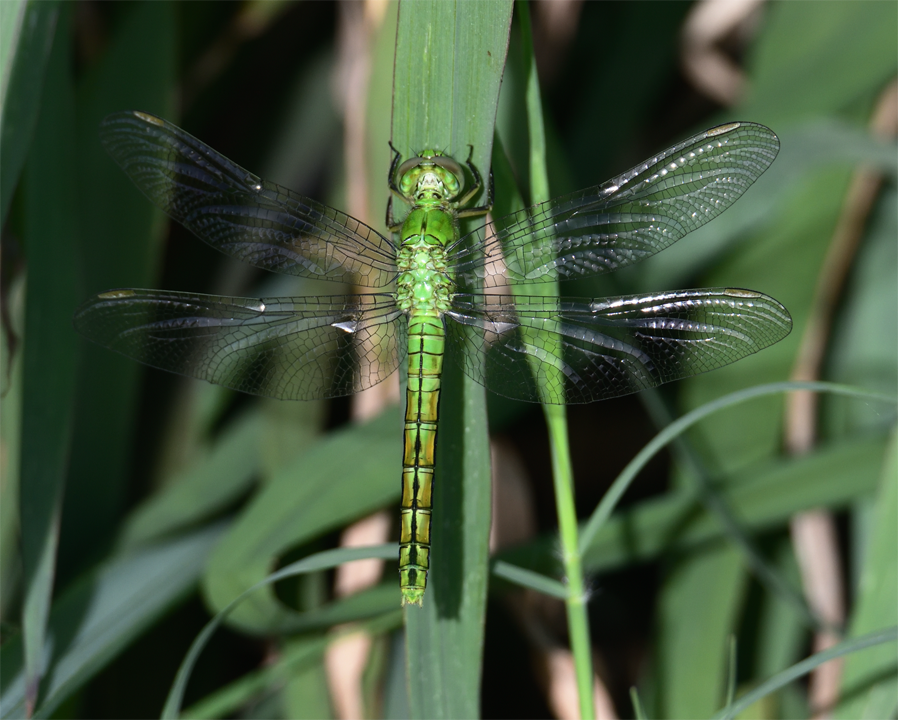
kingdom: Animalia
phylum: Arthropoda
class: Insecta
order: Odonata
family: Libellulidae
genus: Erythemis
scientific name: Erythemis collocata
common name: Western pondhawk
